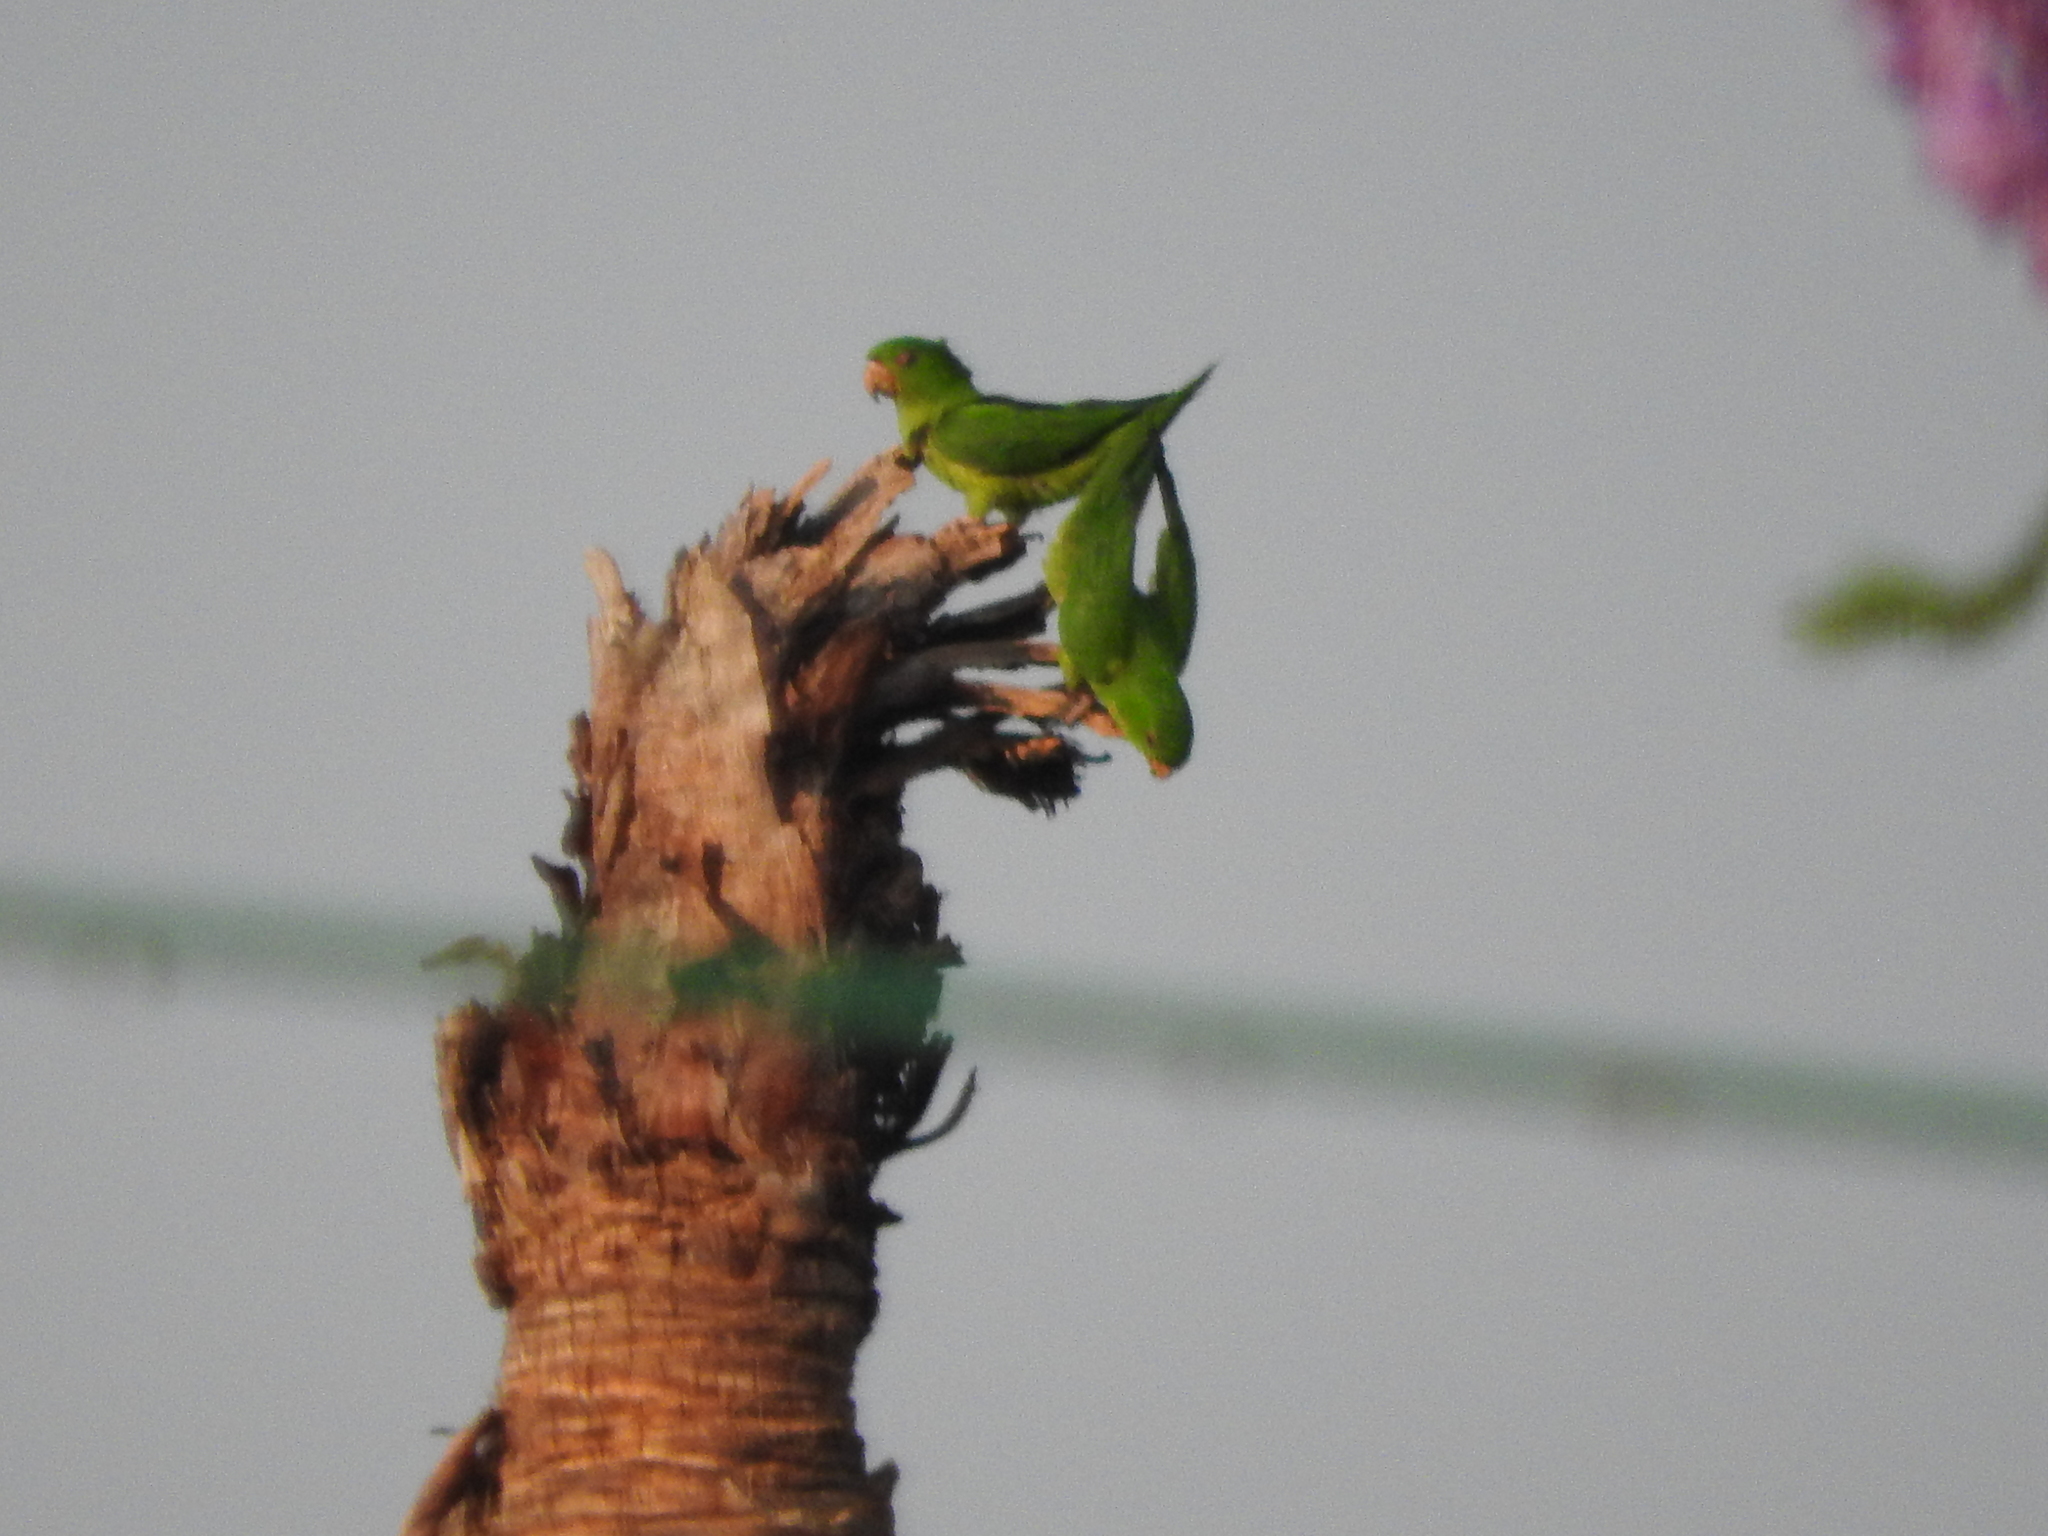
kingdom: Animalia
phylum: Chordata
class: Aves
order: Psittaciformes
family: Psittacidae
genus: Aratinga
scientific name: Aratinga holochlora
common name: Green parakeet
